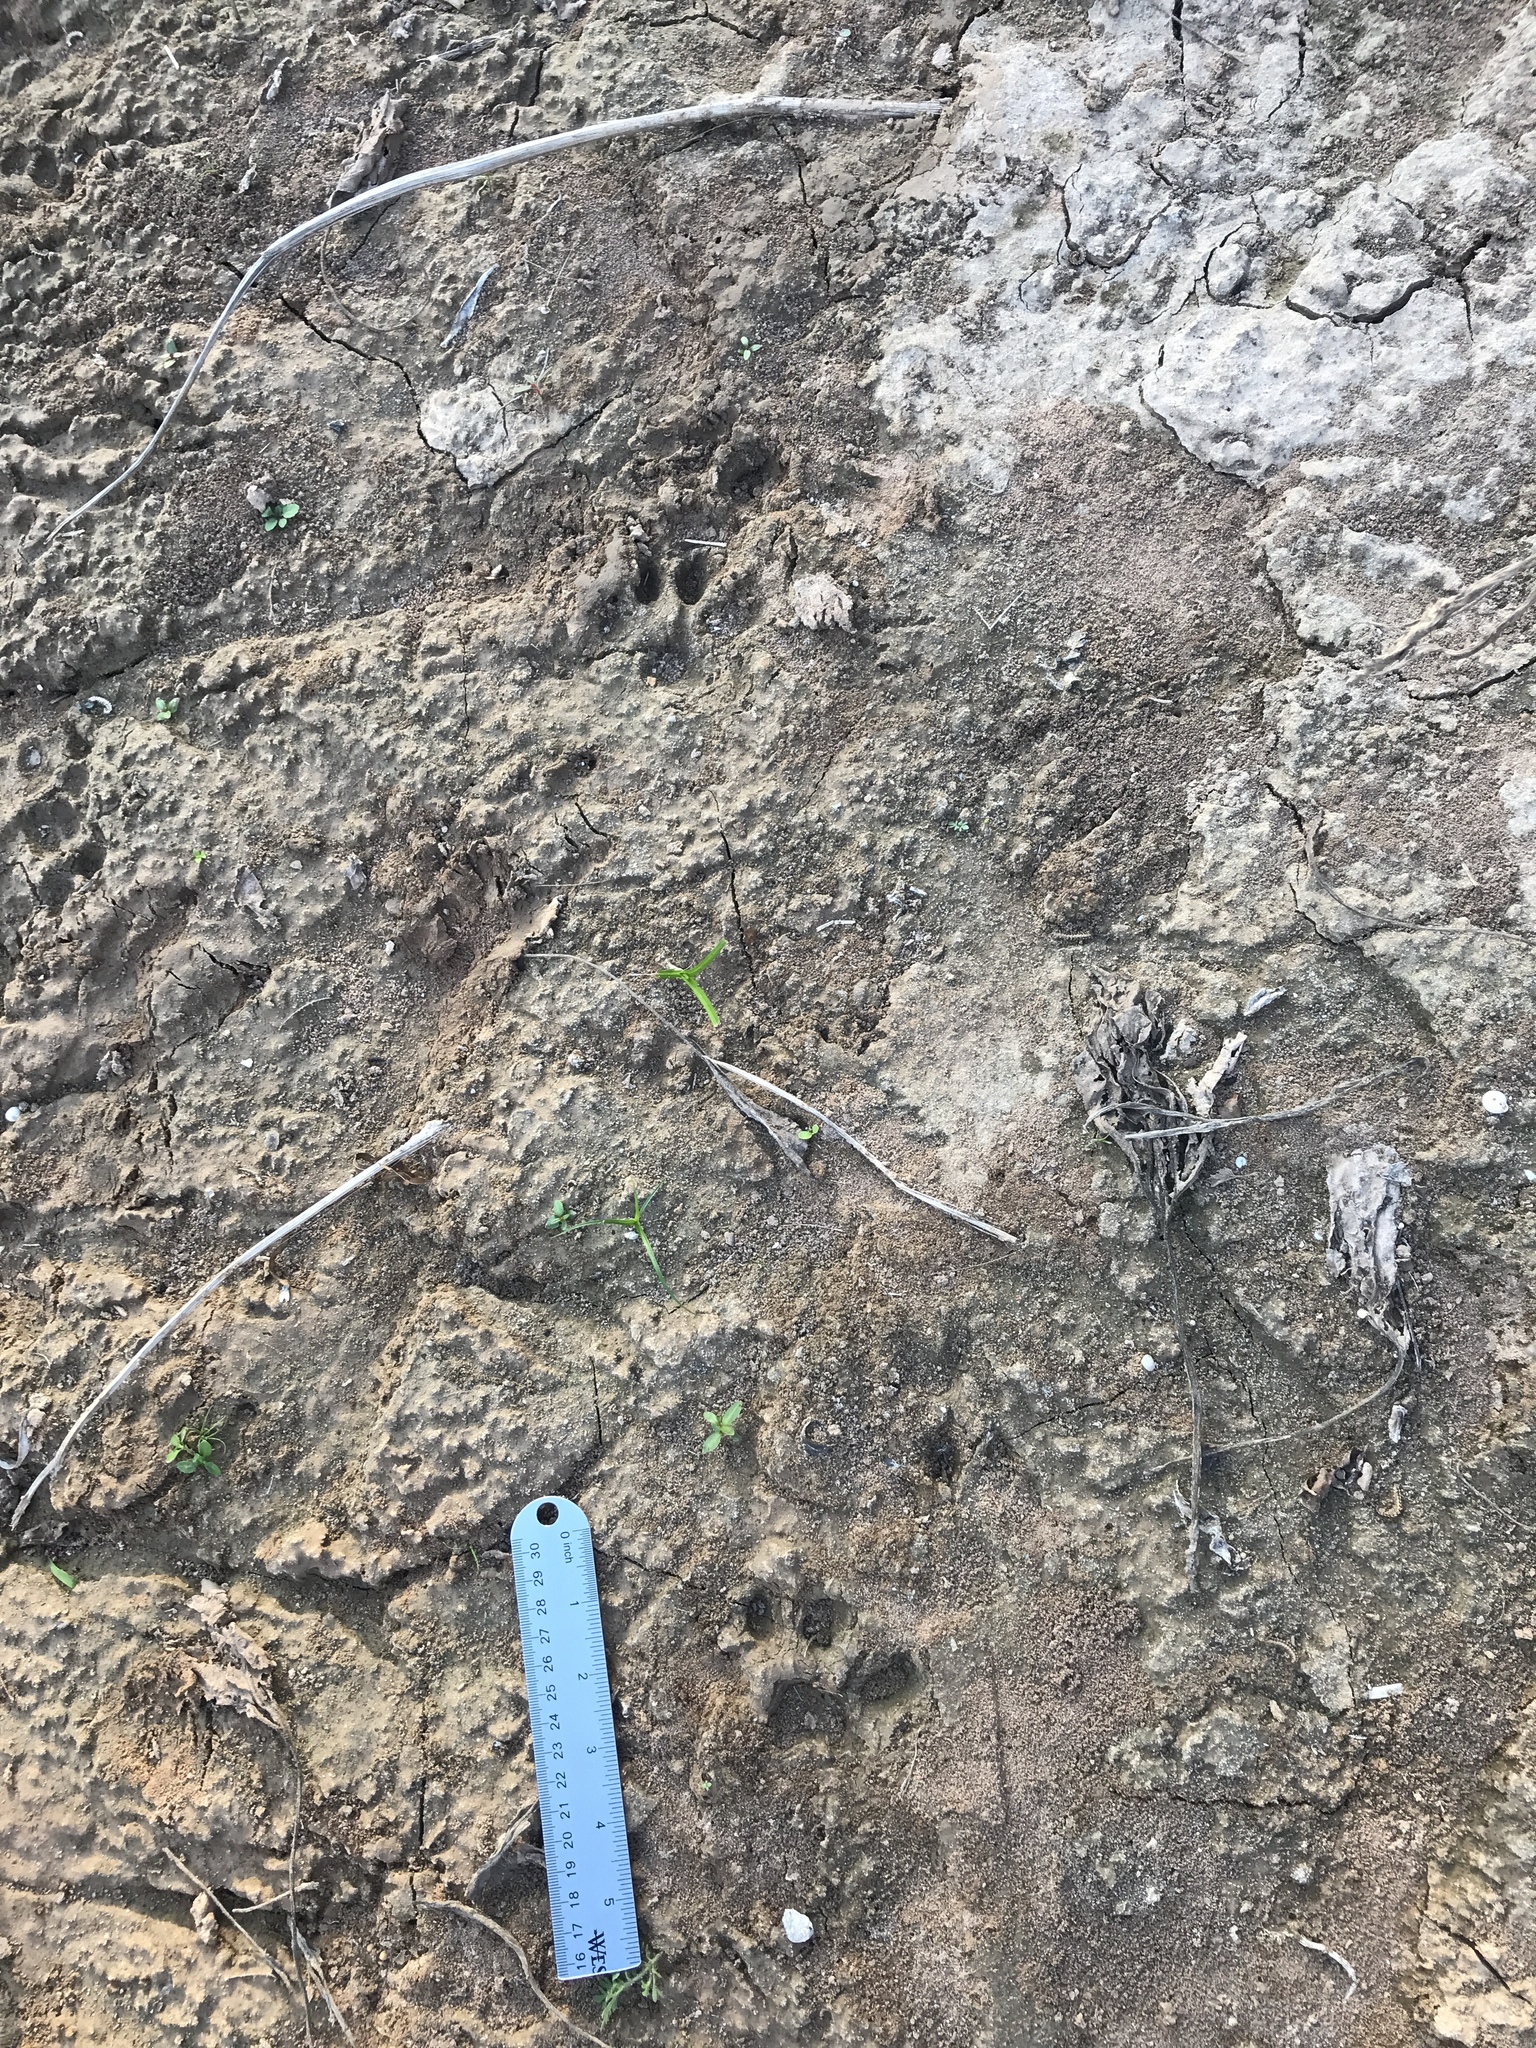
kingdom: Animalia
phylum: Chordata
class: Mammalia
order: Carnivora
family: Felidae
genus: Lynx
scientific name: Lynx rufus
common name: Bobcat
